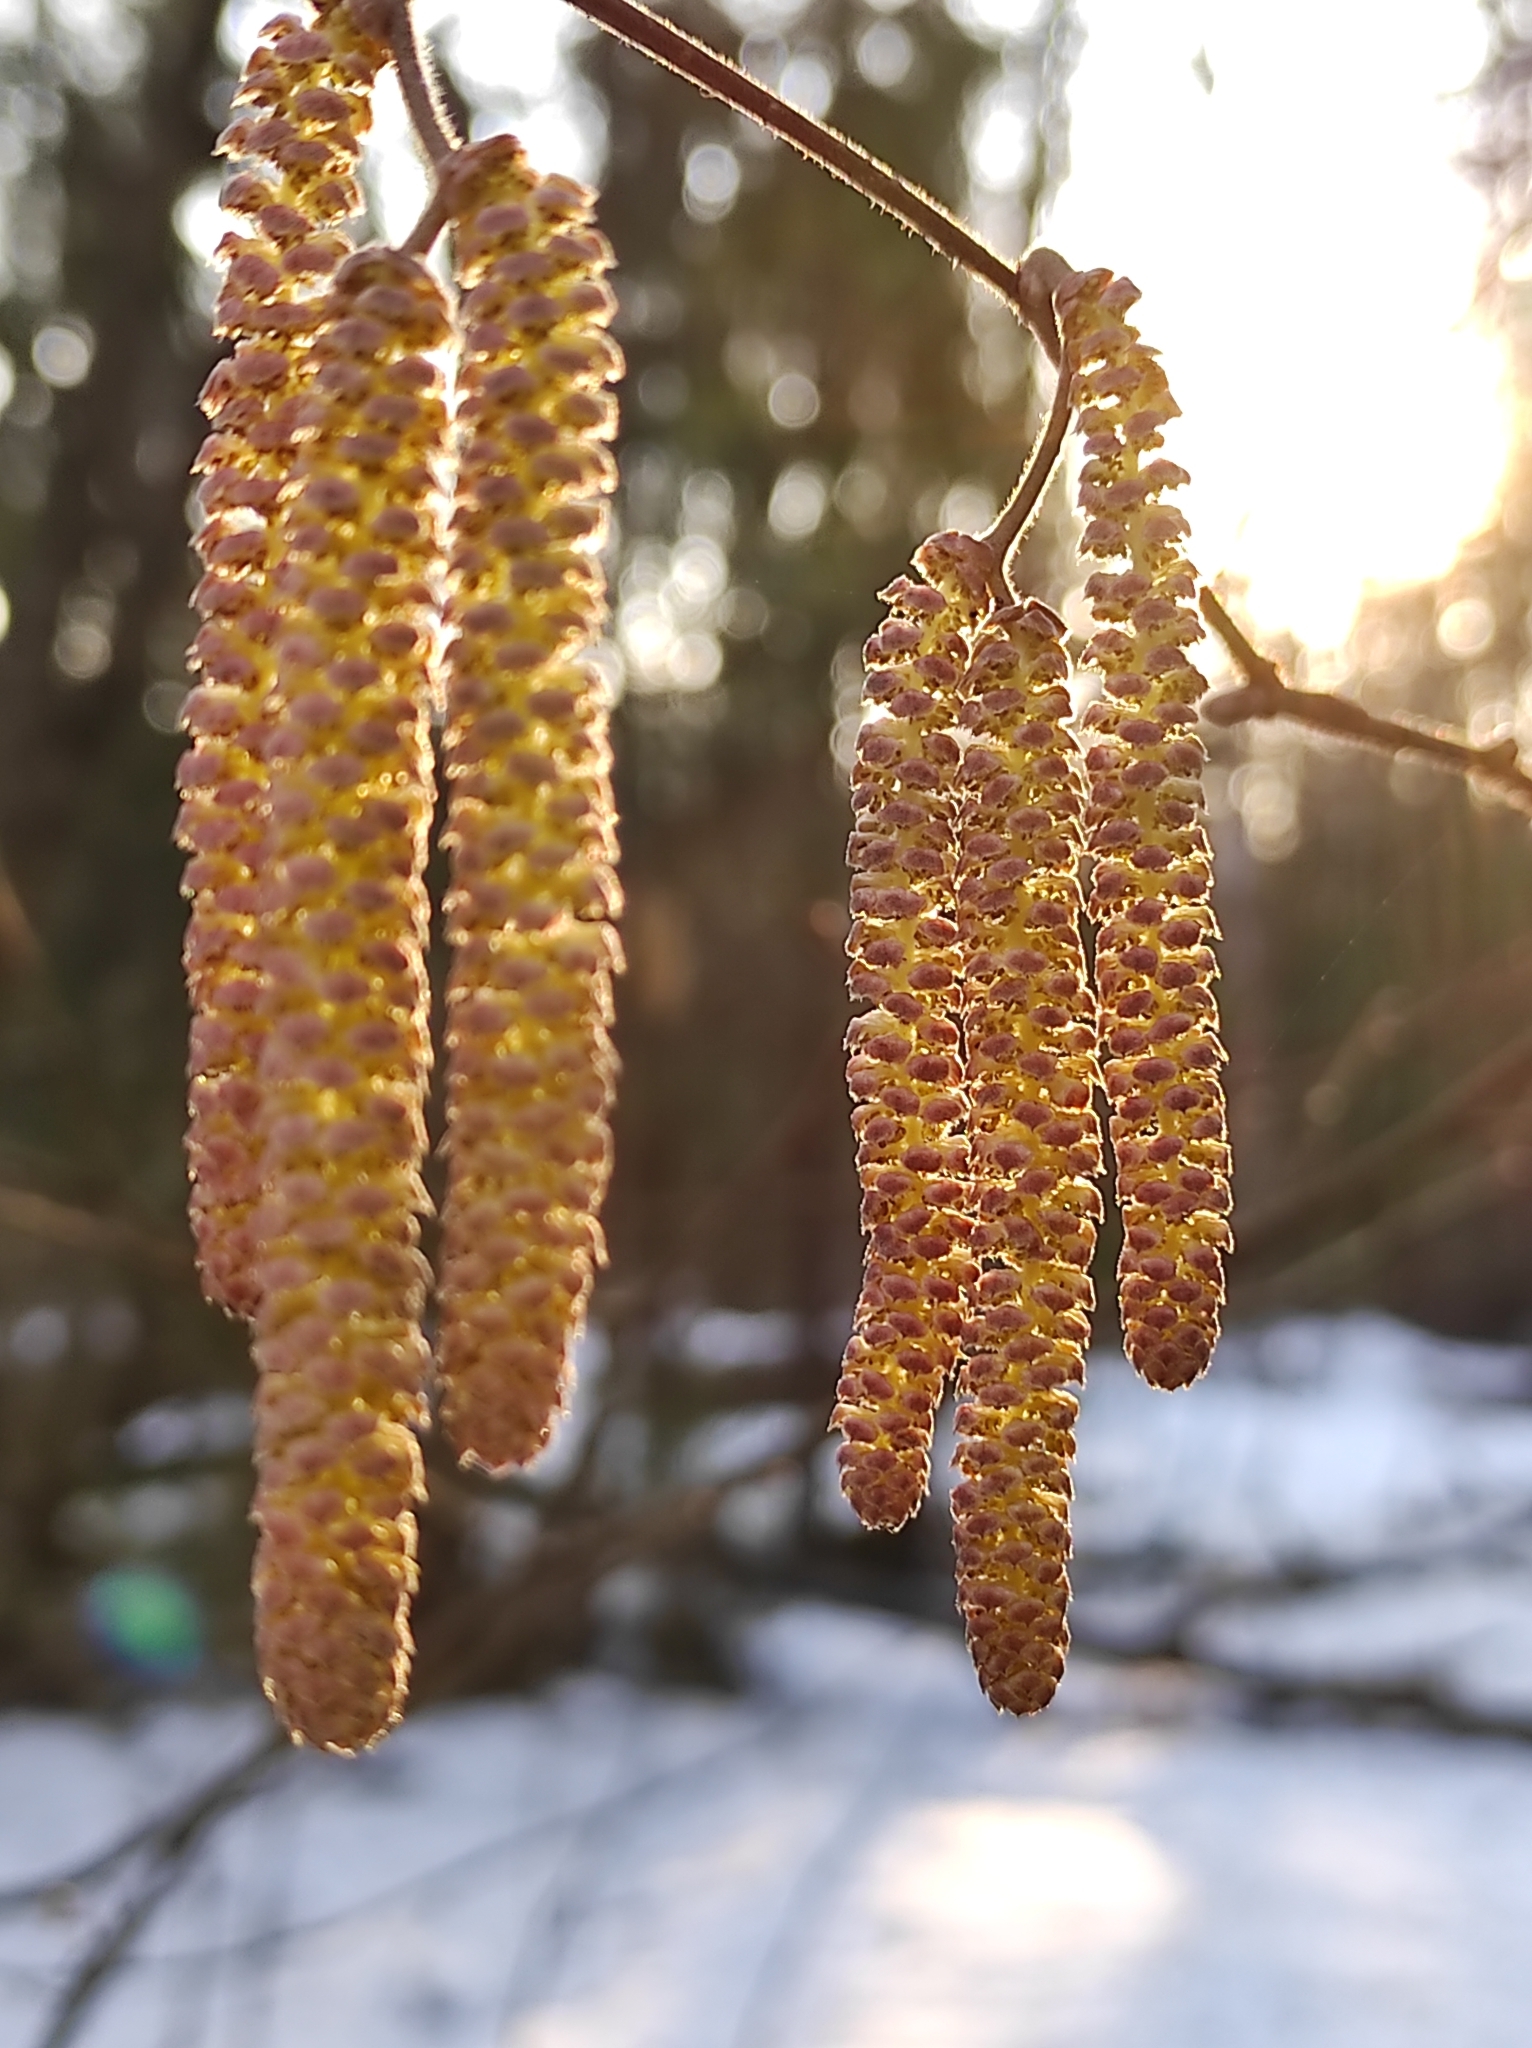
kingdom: Plantae
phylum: Tracheophyta
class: Magnoliopsida
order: Fagales
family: Betulaceae
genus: Corylus
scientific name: Corylus avellana
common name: European hazel
